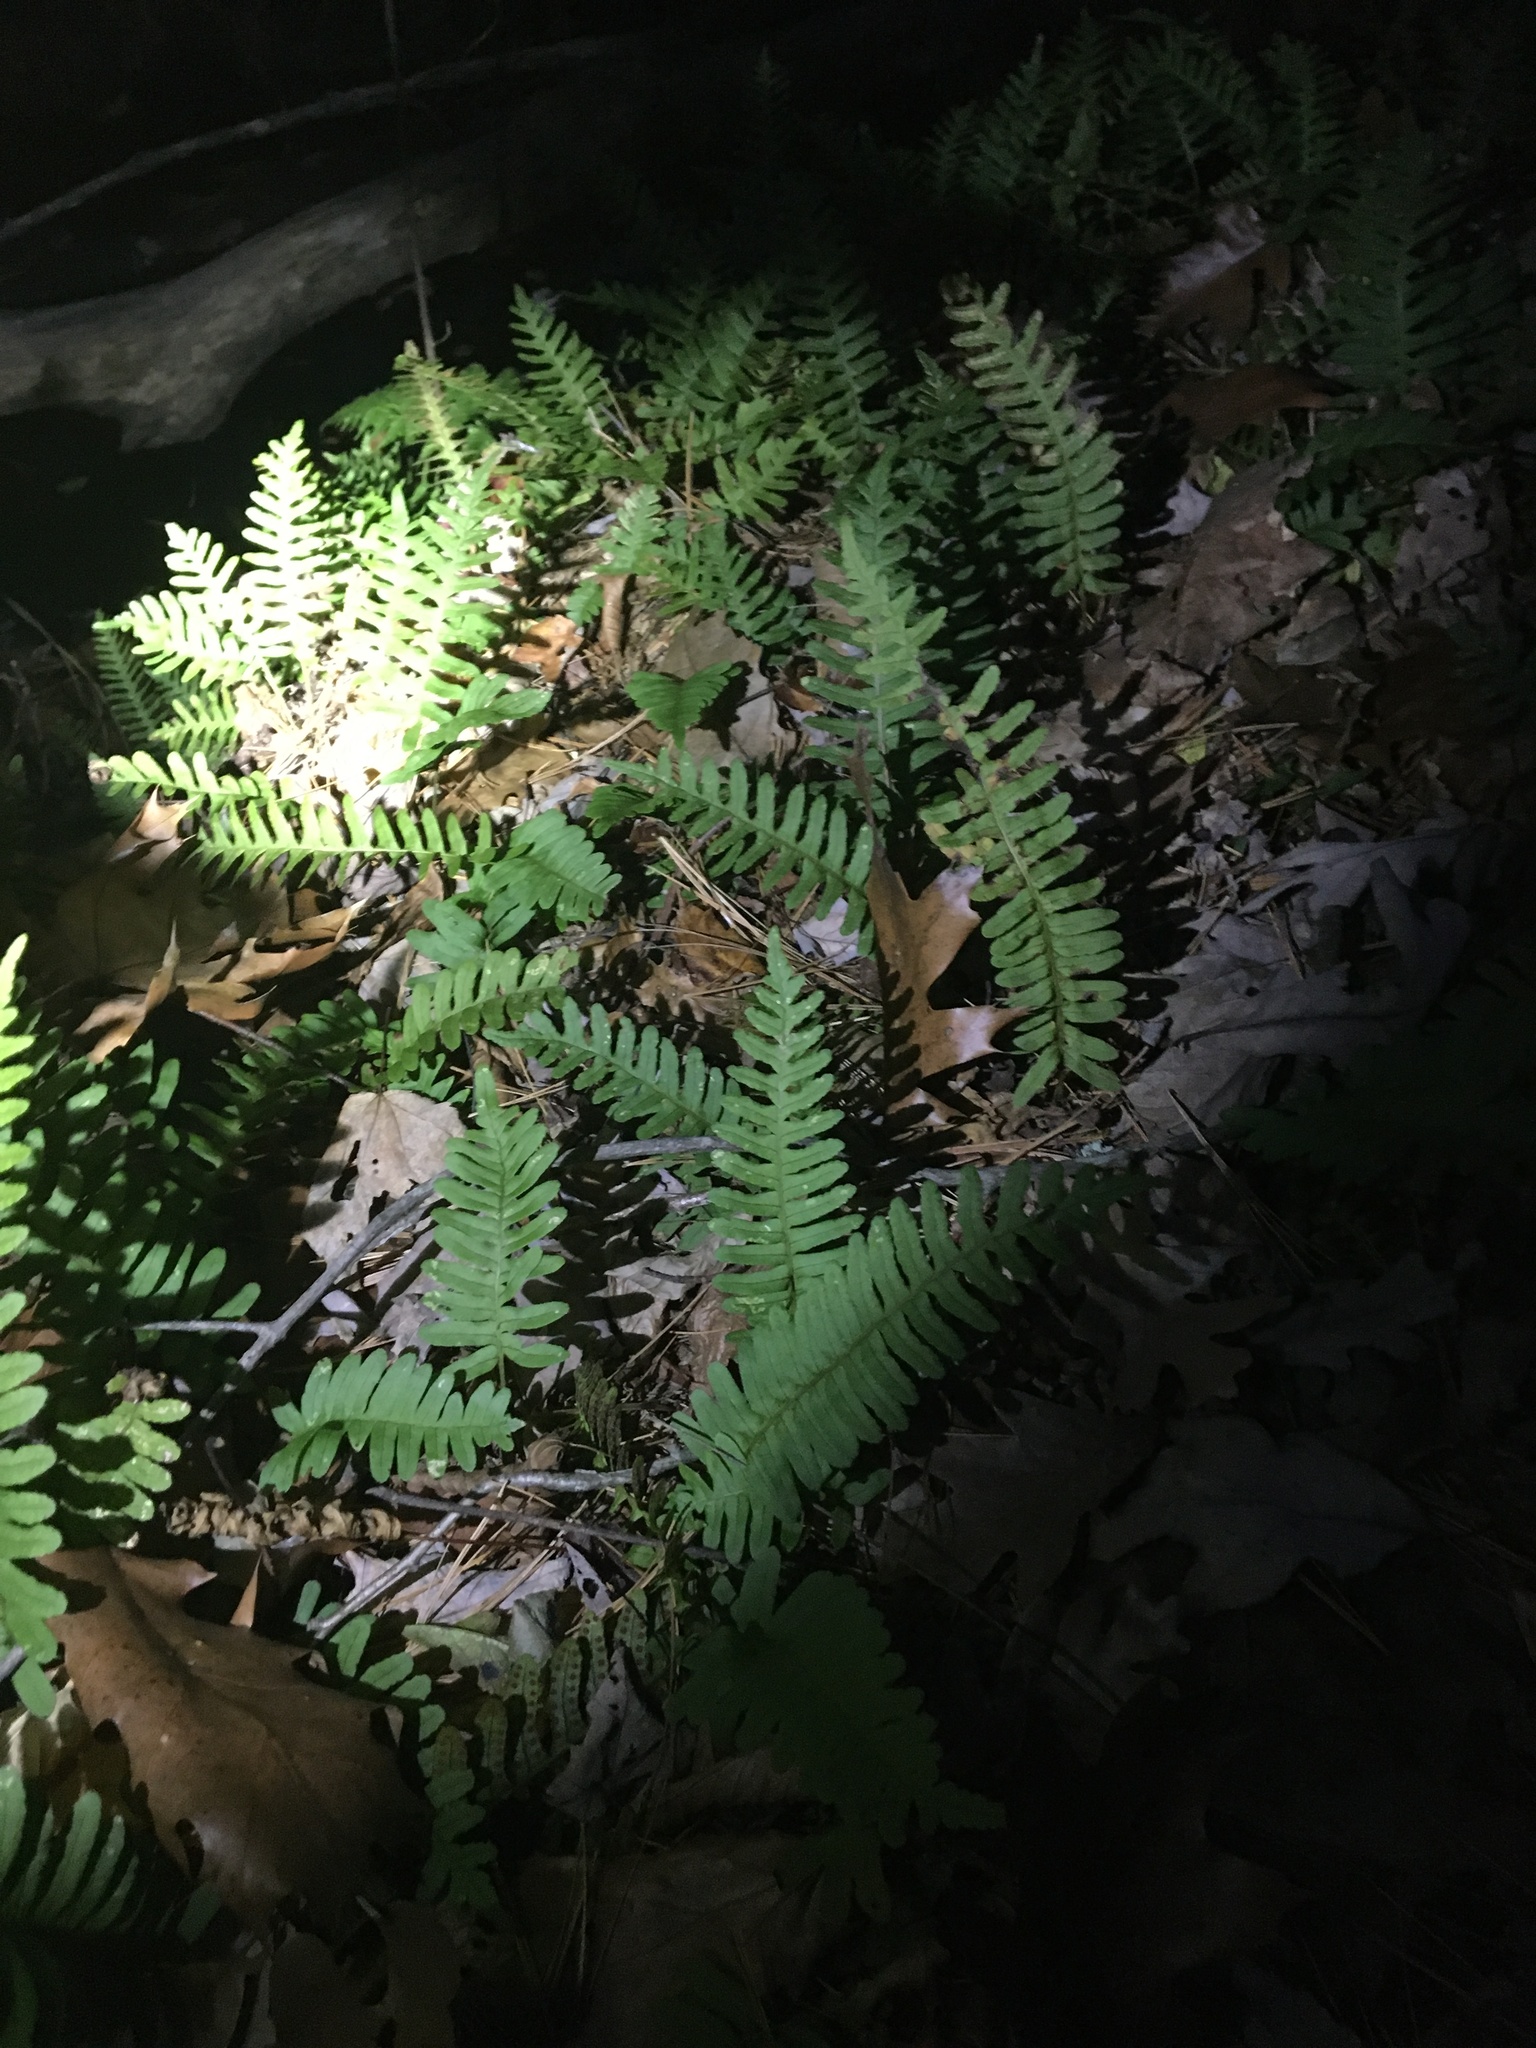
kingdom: Plantae
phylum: Tracheophyta
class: Polypodiopsida
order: Polypodiales
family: Polypodiaceae
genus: Polypodium
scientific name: Polypodium virginianum
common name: American wall fern
